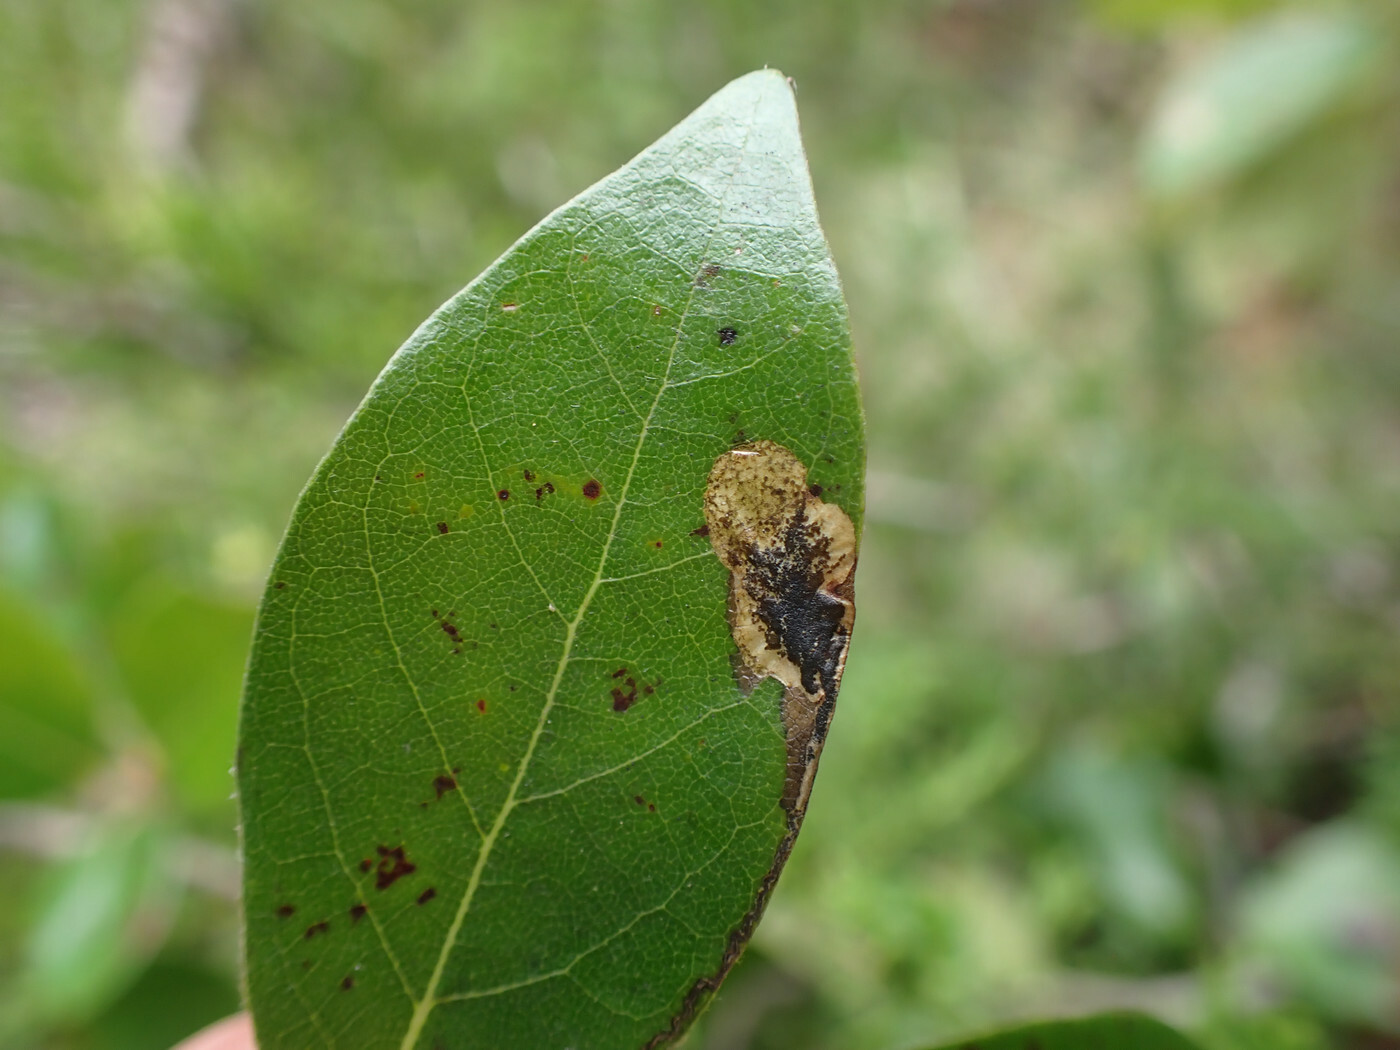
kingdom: Animalia
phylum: Arthropoda
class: Insecta
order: Lepidoptera
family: Nepticulidae
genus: Ectoedemia
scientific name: Ectoedemia nyssaefoliella
